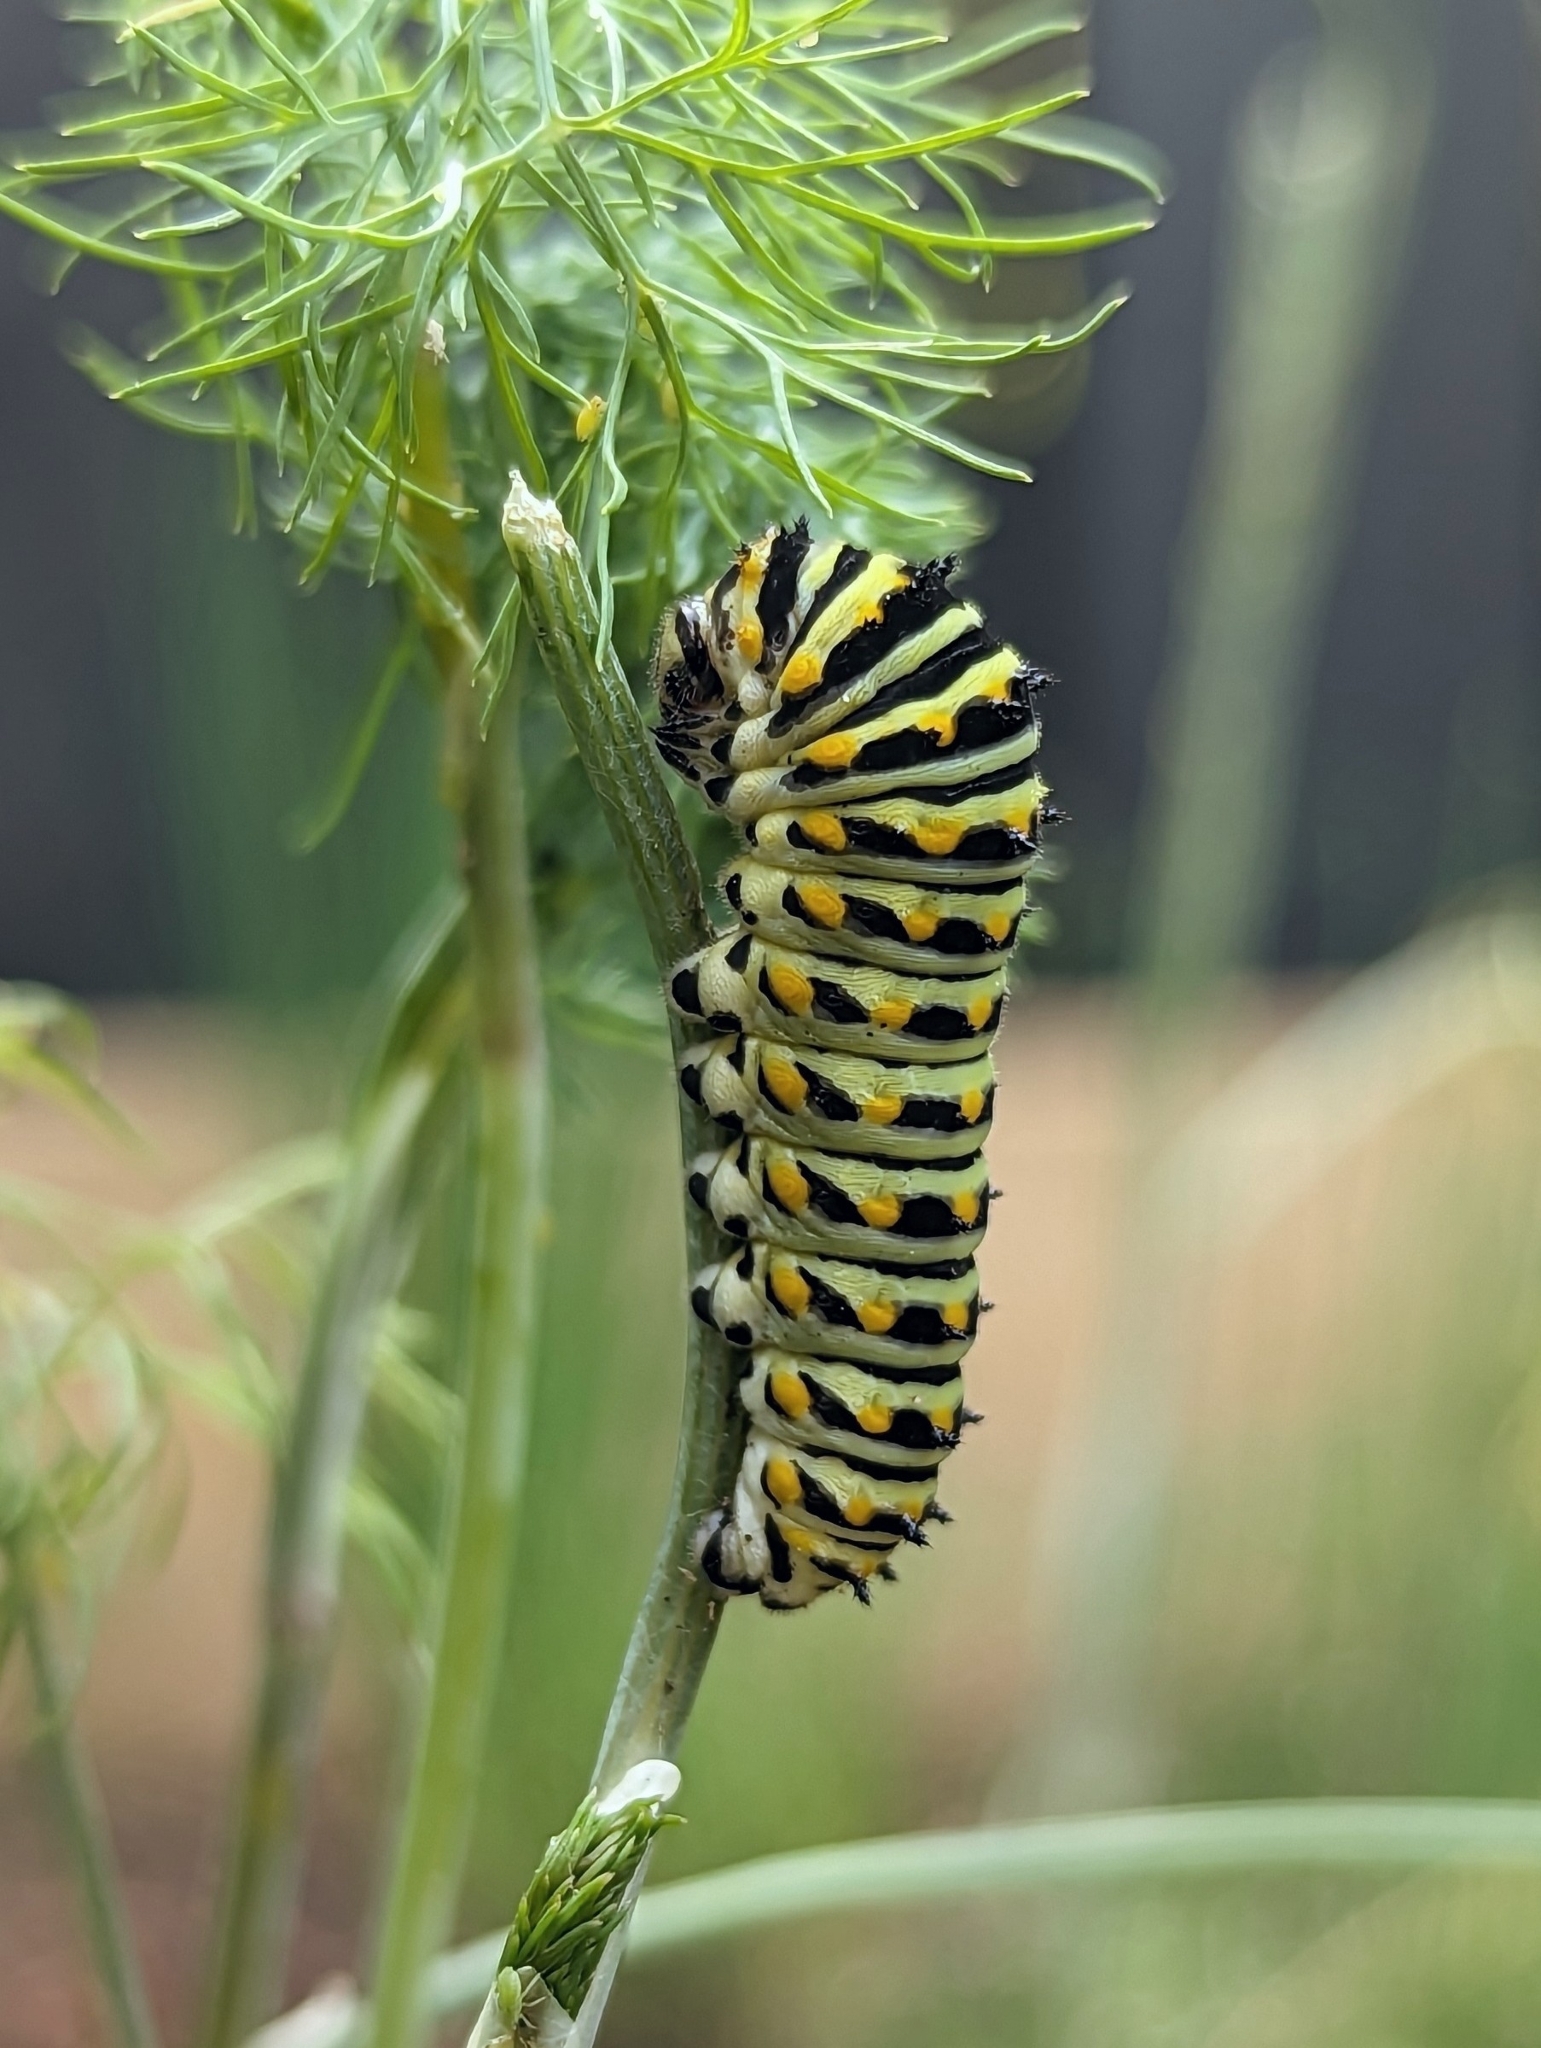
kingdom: Animalia
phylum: Arthropoda
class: Insecta
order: Lepidoptera
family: Papilionidae
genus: Papilio
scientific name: Papilio polyxenes
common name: Black swallowtail
